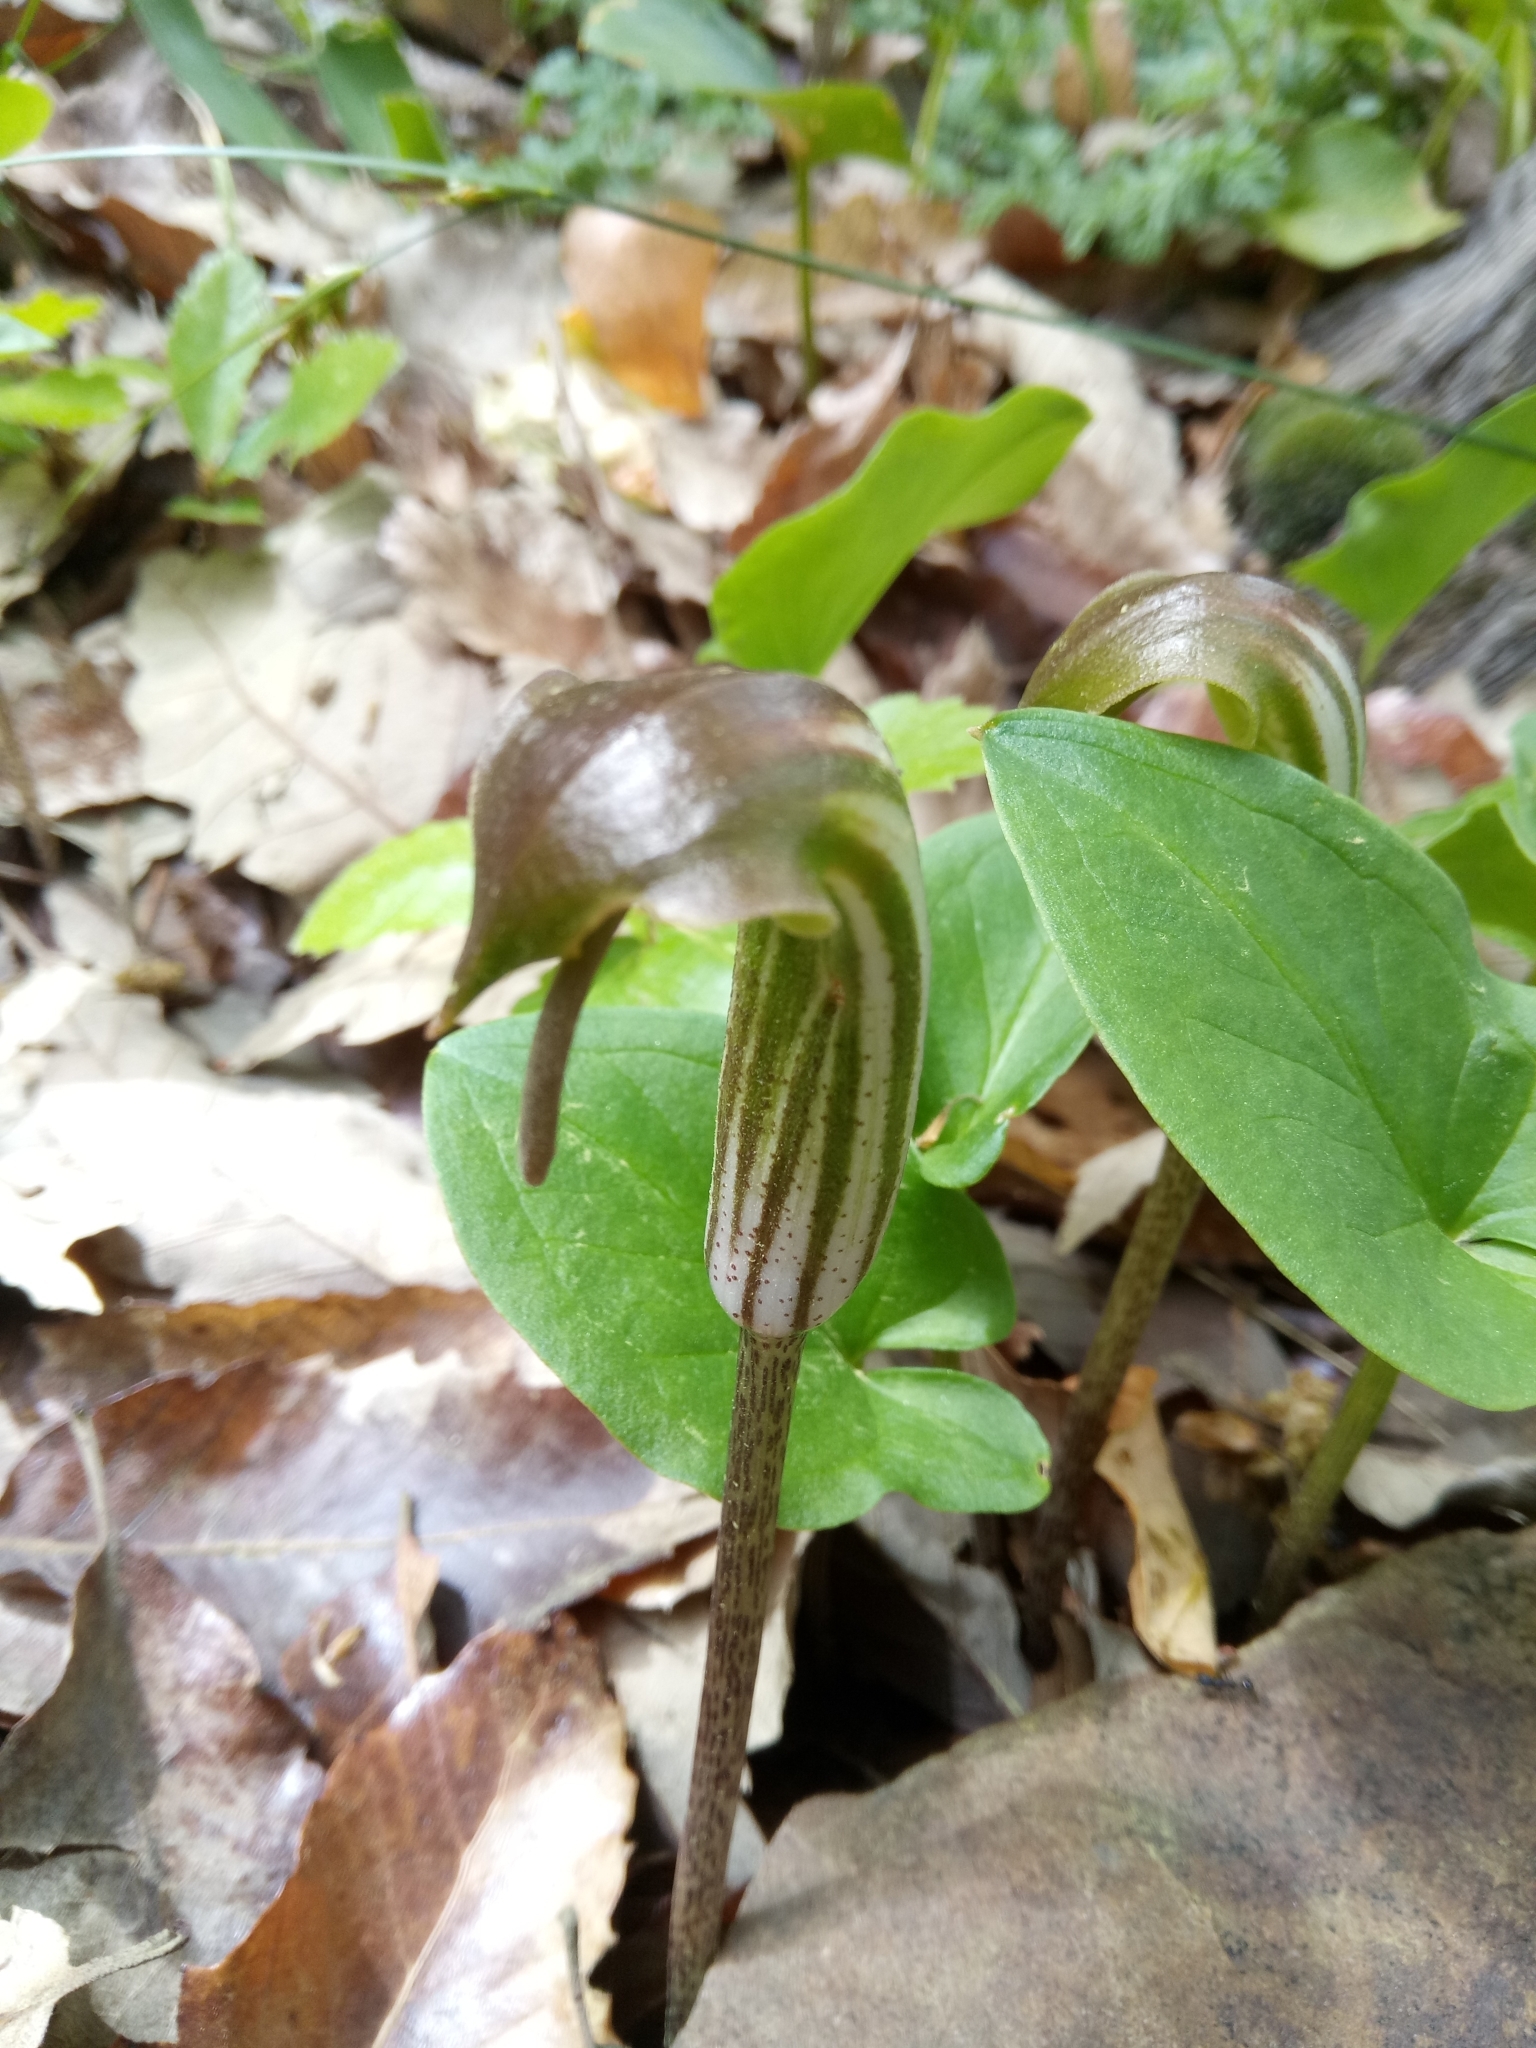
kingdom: Plantae
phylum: Tracheophyta
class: Liliopsida
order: Alismatales
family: Araceae
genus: Arisarum
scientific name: Arisarum vulgare
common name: Common arisarum
